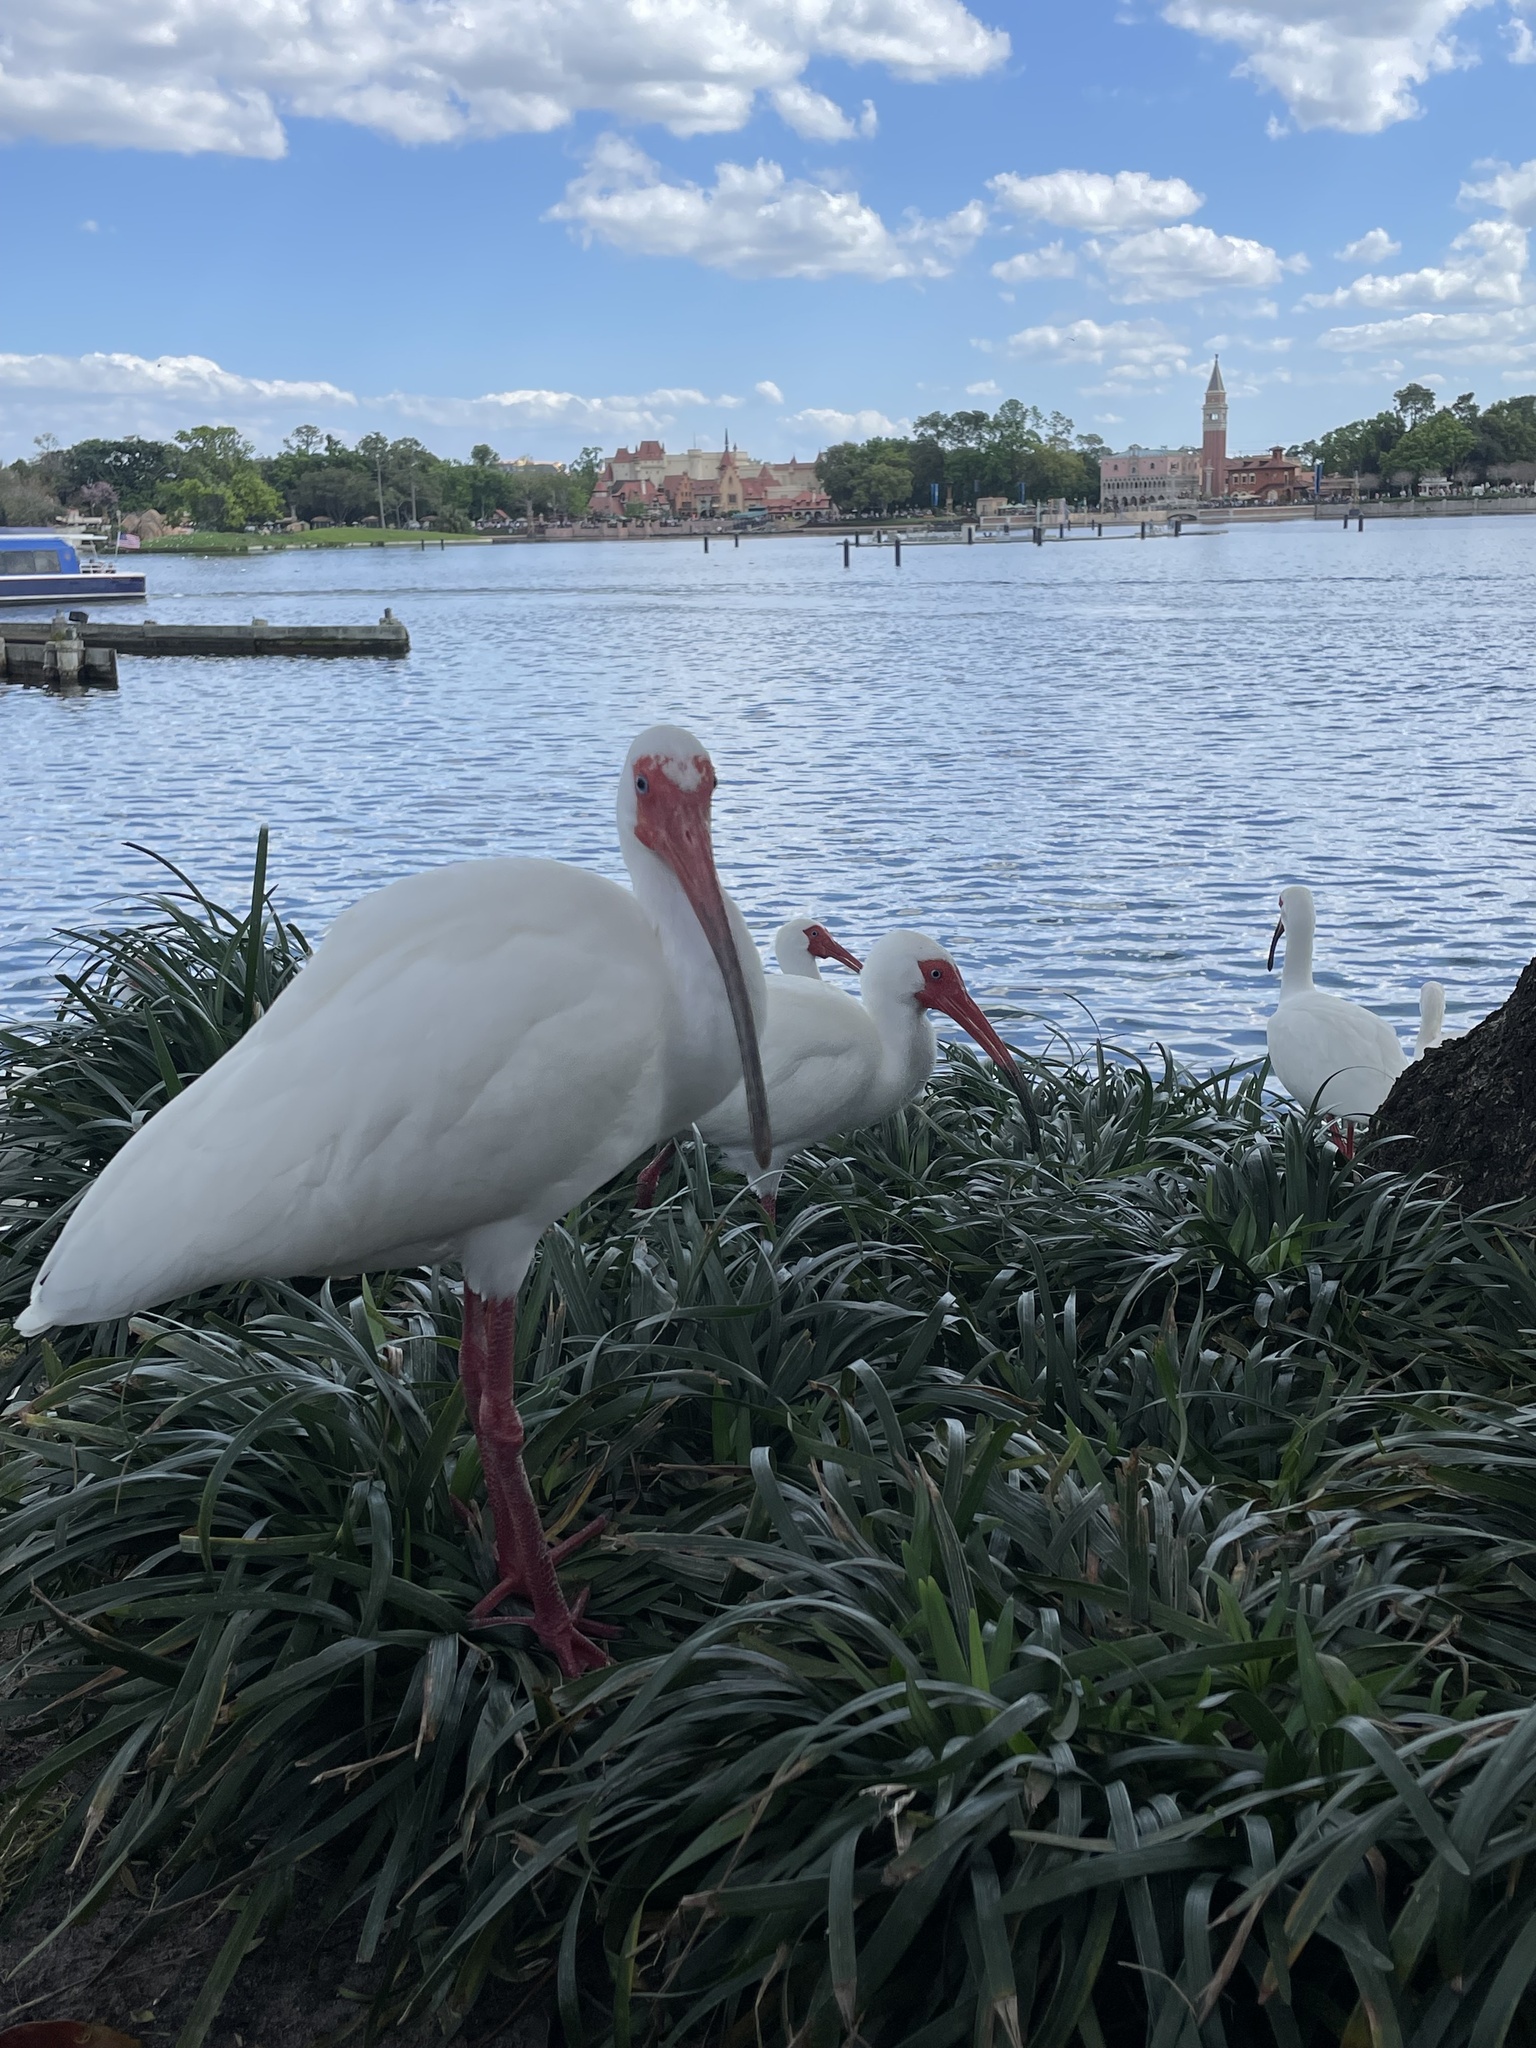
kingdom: Animalia
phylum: Chordata
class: Aves
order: Pelecaniformes
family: Threskiornithidae
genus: Eudocimus
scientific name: Eudocimus albus
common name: White ibis
